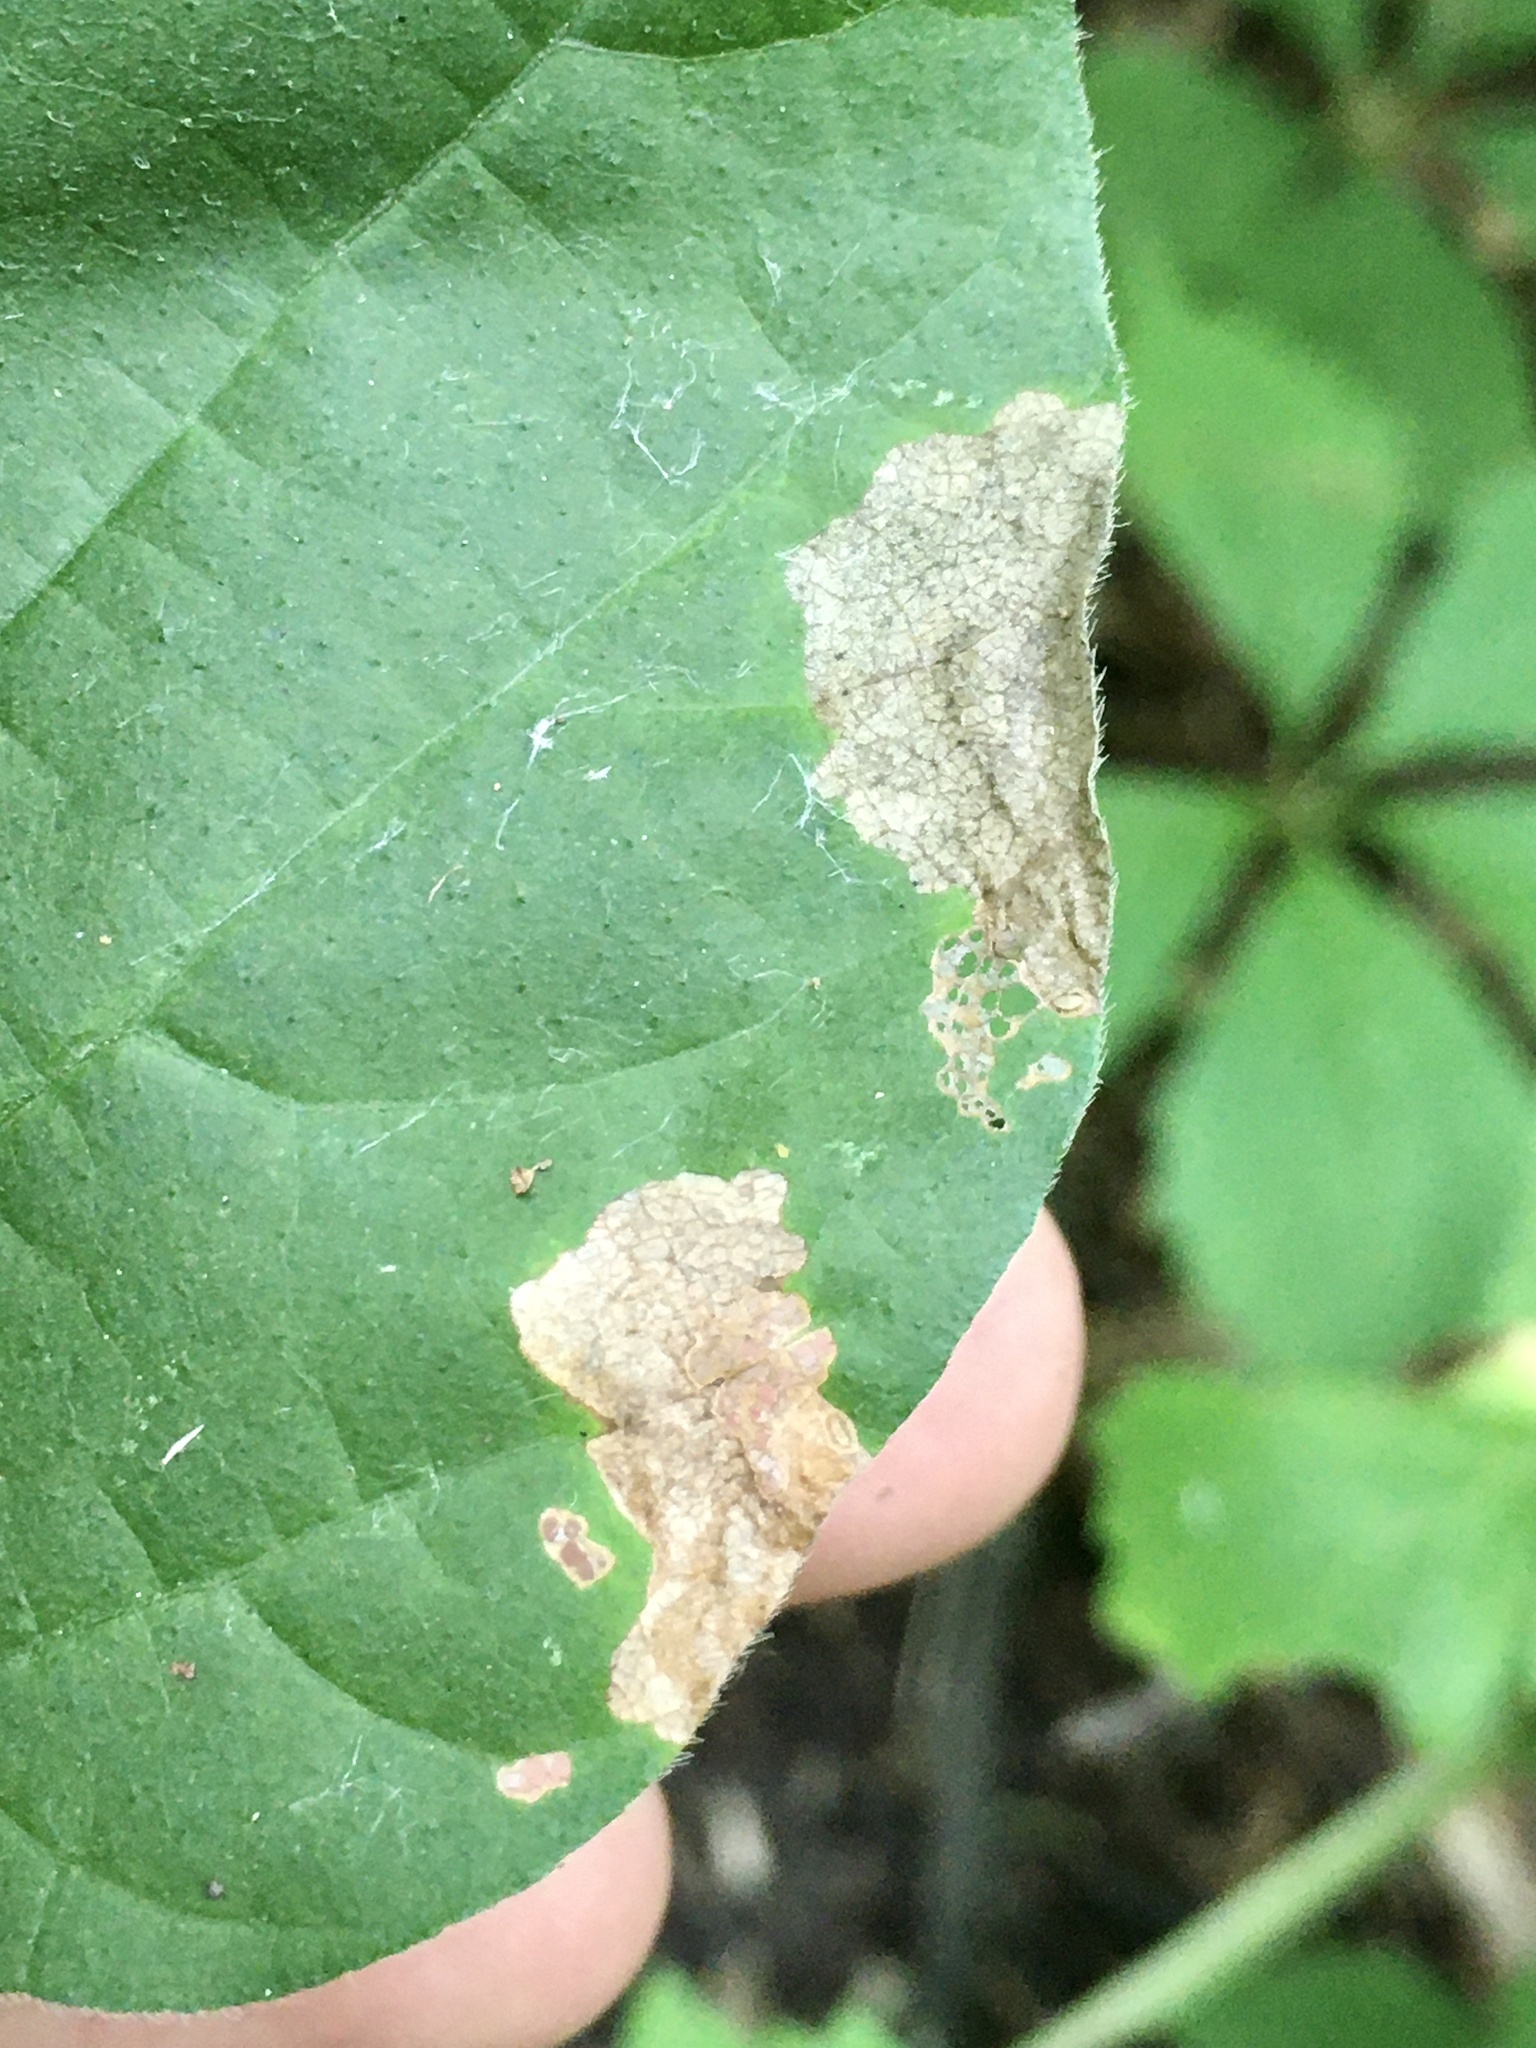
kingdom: Animalia
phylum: Arthropoda
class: Insecta
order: Coleoptera
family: Chrysomelidae
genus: Sumitrosis
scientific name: Sumitrosis rosea
